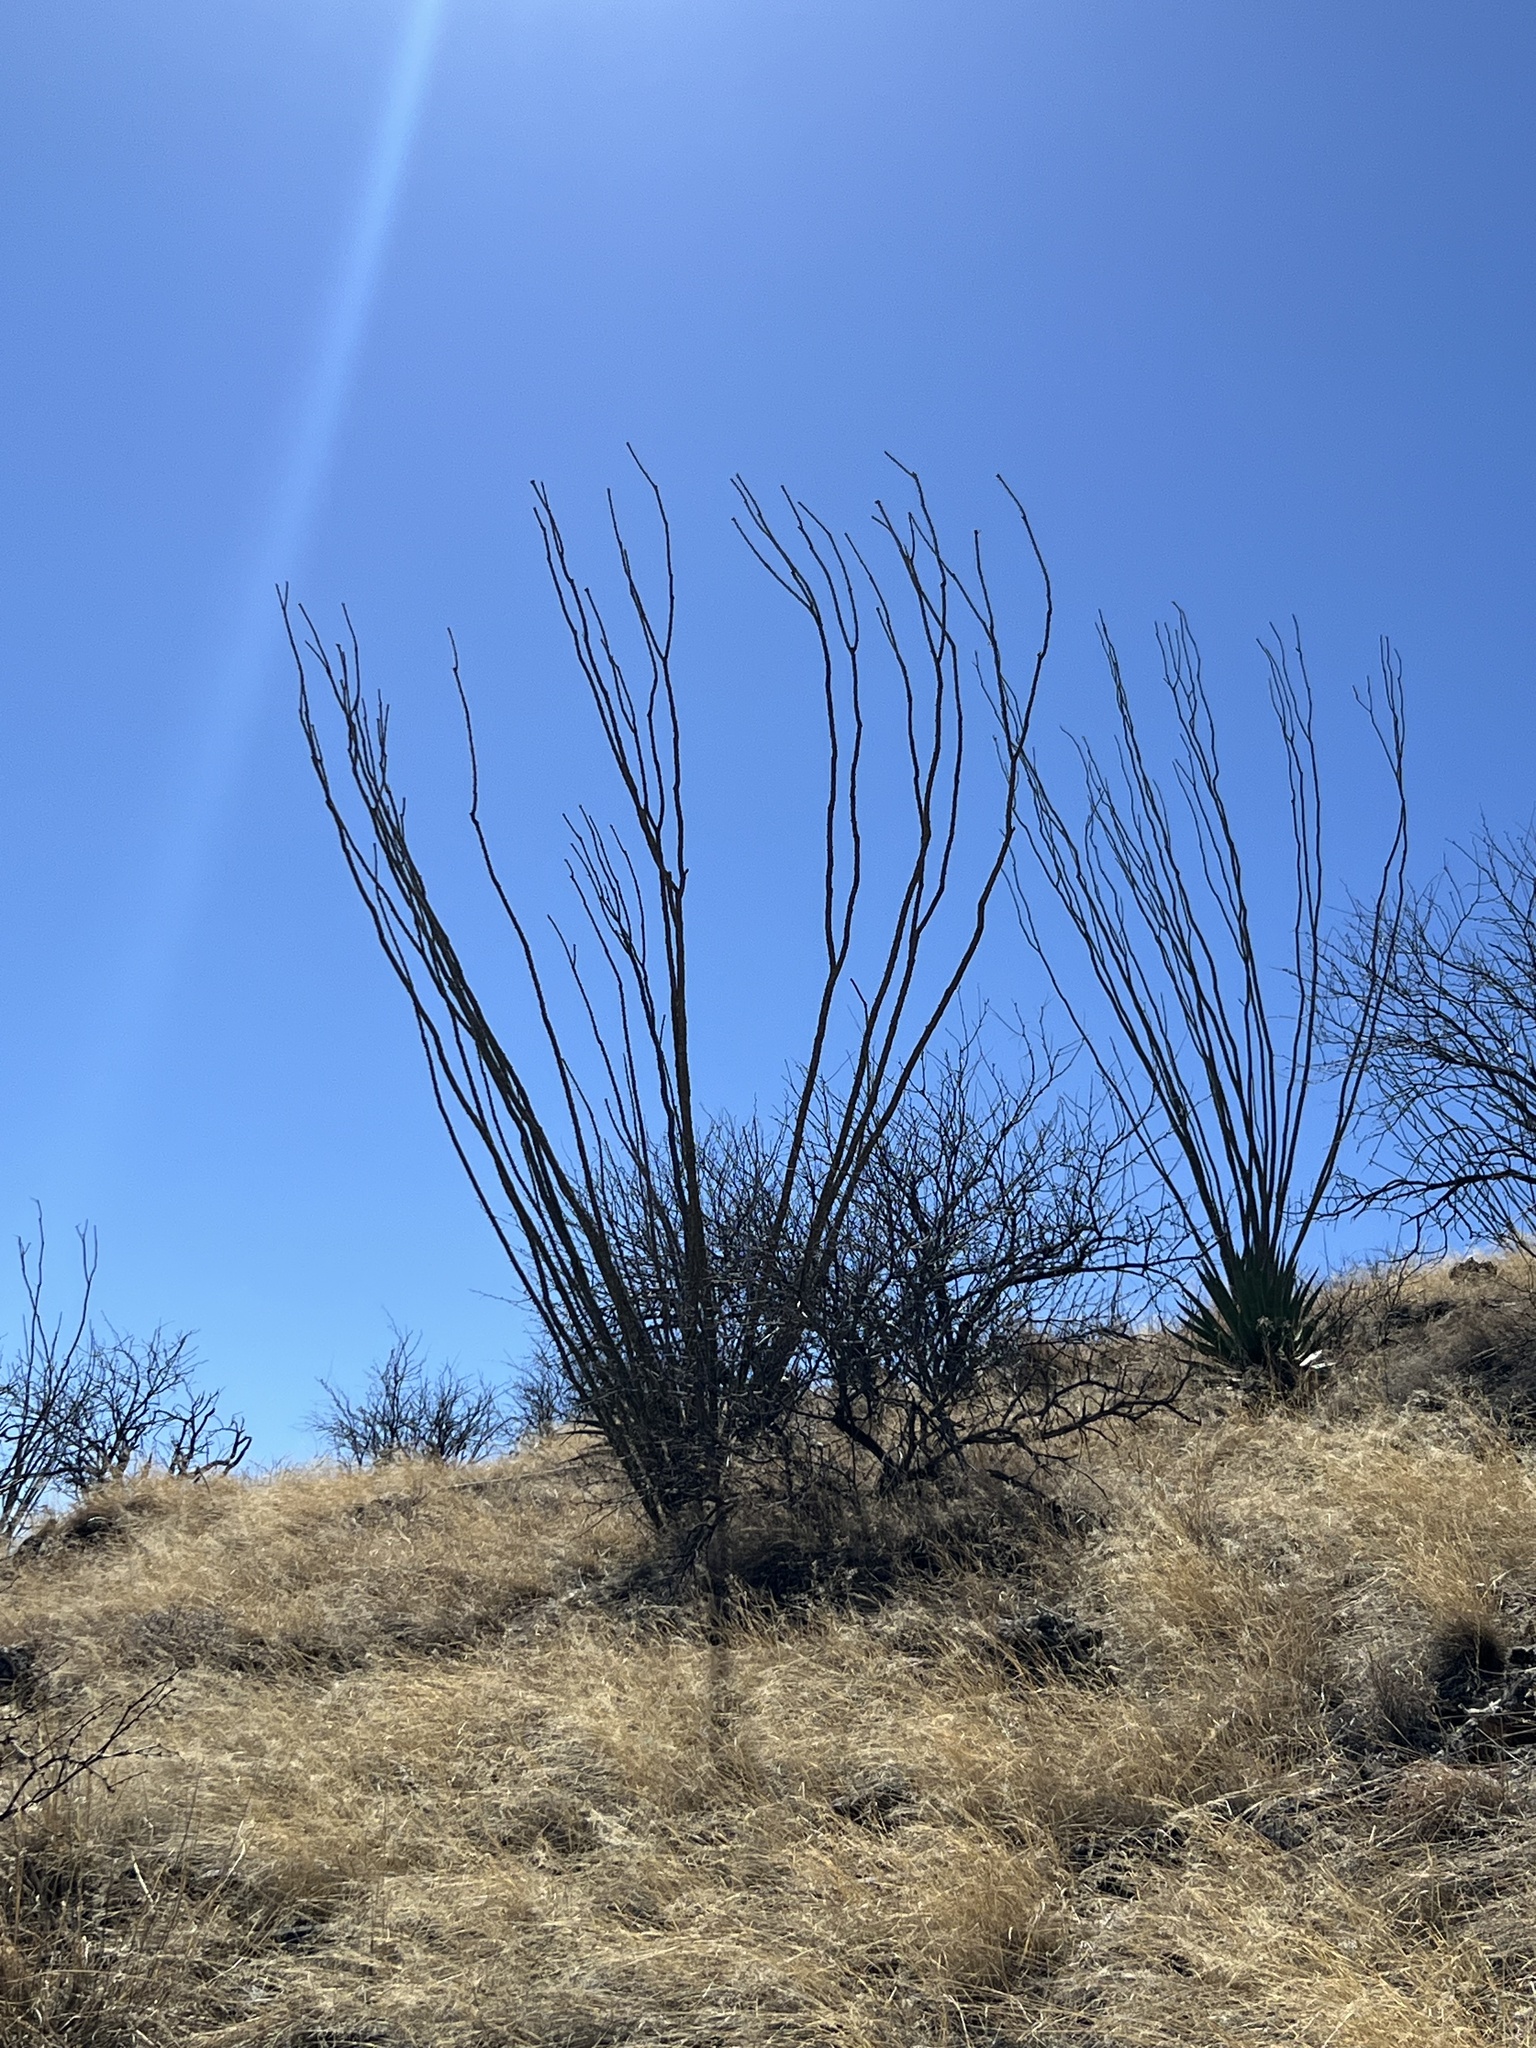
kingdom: Plantae
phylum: Tracheophyta
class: Magnoliopsida
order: Ericales
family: Fouquieriaceae
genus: Fouquieria
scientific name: Fouquieria splendens
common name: Vine-cactus
